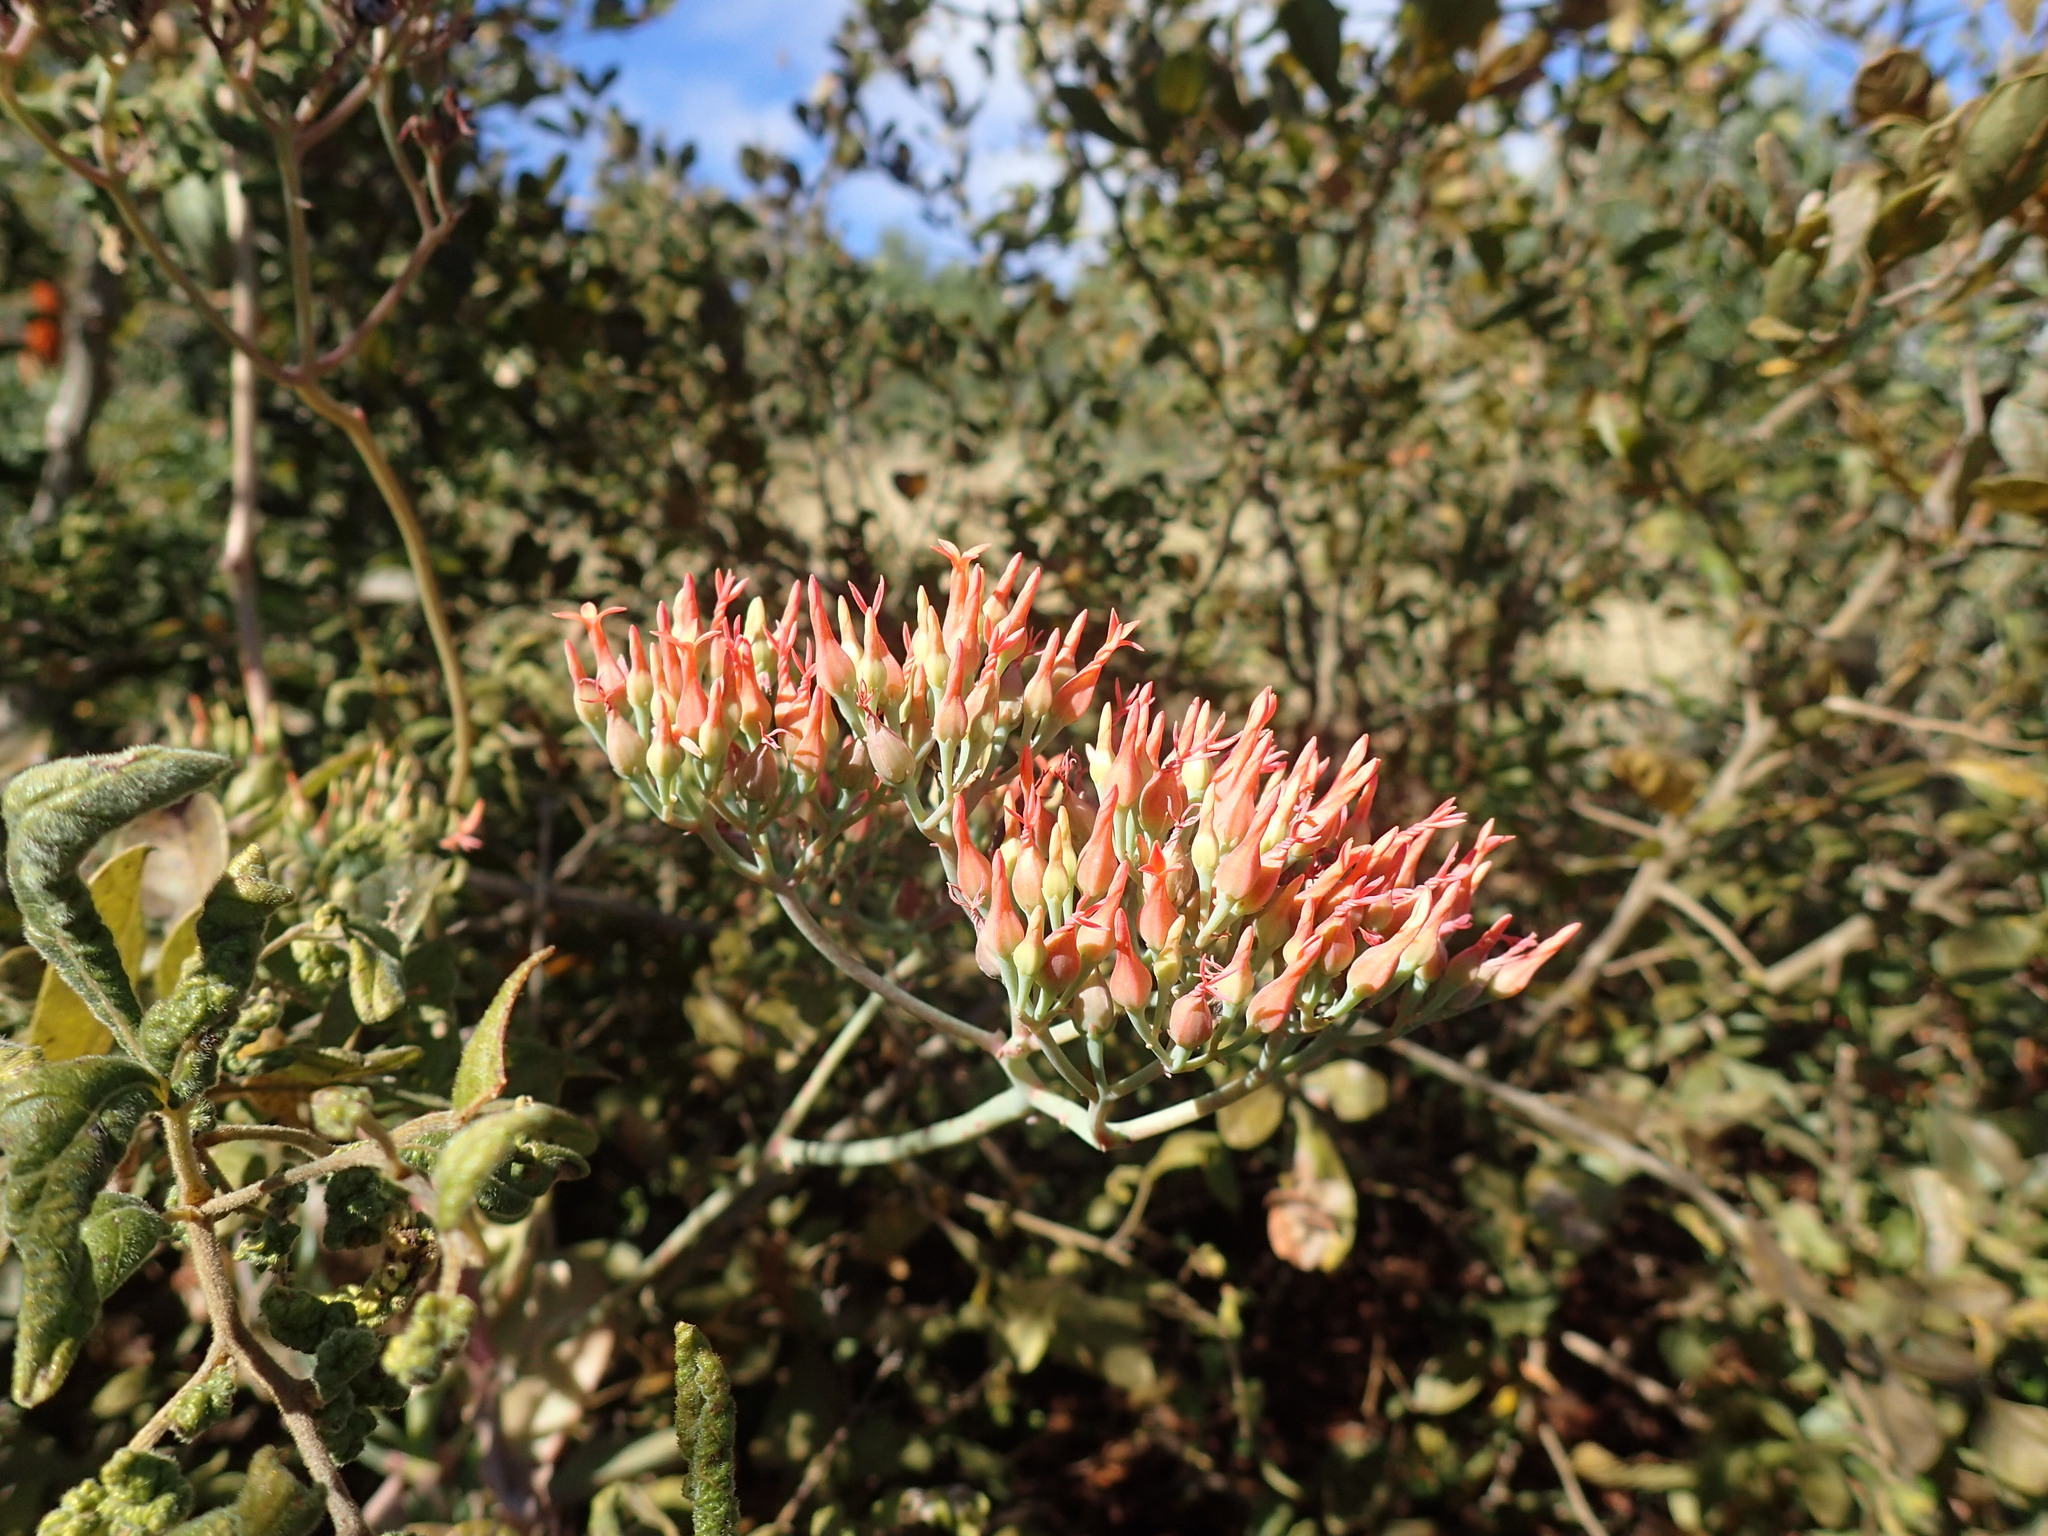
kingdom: Plantae
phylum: Tracheophyta
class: Magnoliopsida
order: Saxifragales
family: Crassulaceae
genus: Kalanchoe
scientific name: Kalanchoe rotundifolia
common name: Common kalanchoe
